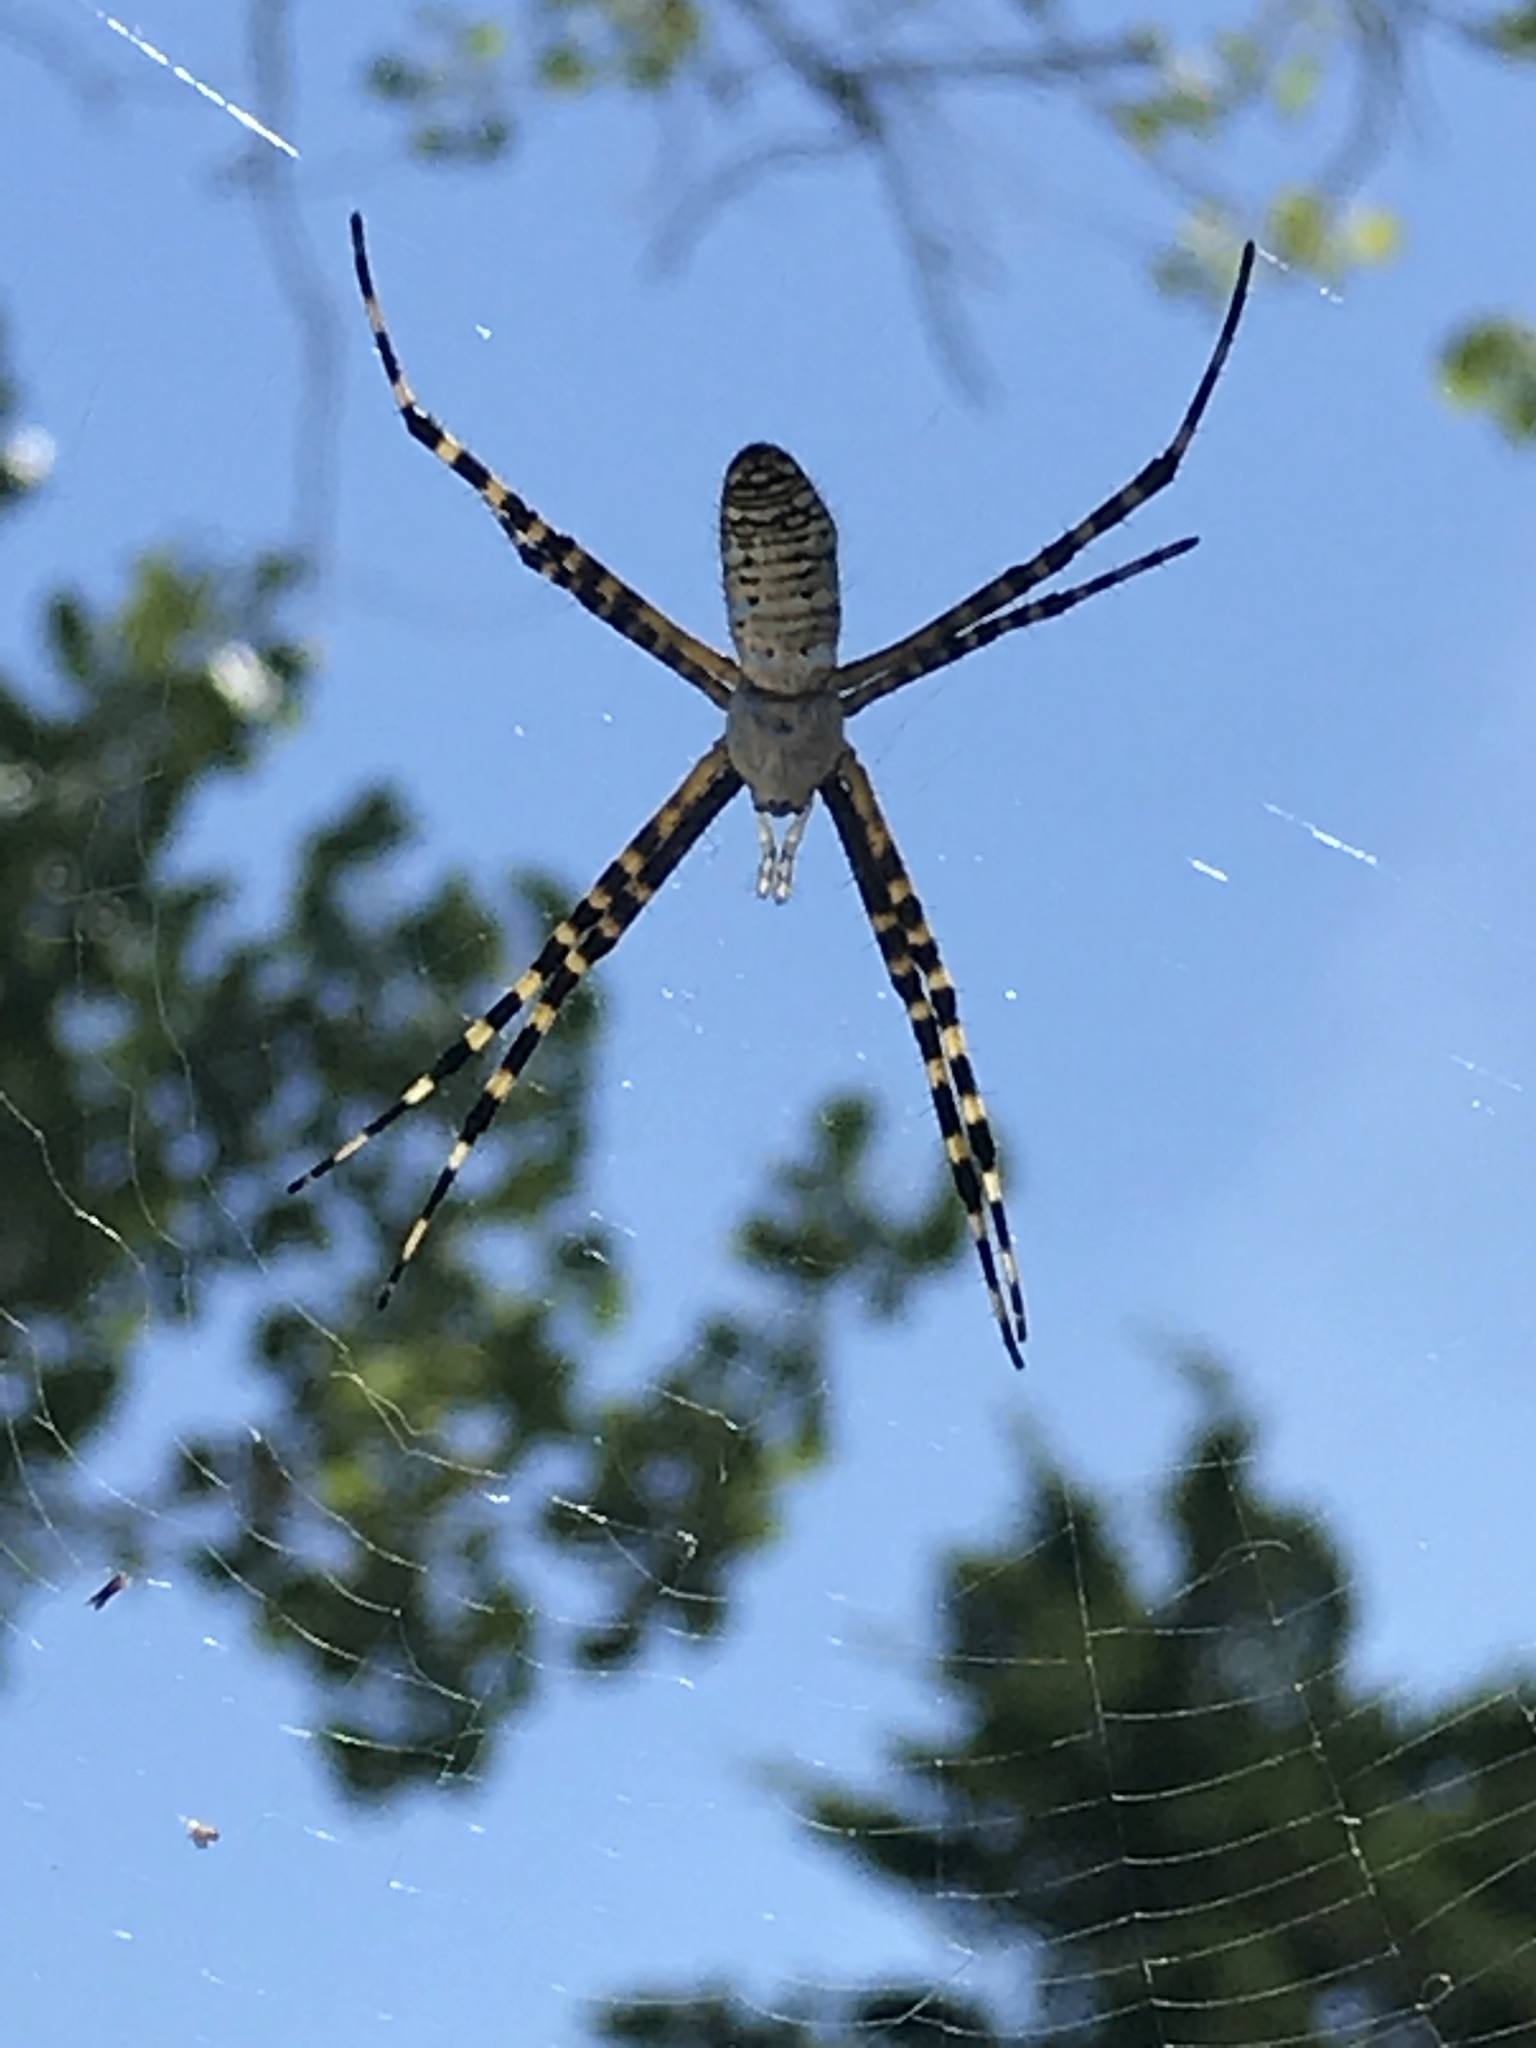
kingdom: Animalia
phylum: Arthropoda
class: Arachnida
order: Araneae
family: Araneidae
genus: Argiope
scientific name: Argiope trifasciata
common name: Banded garden spider
